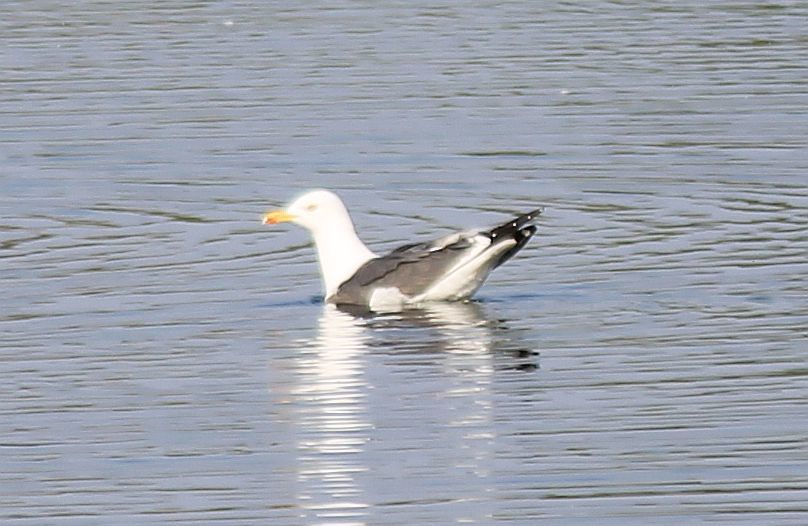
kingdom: Animalia
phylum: Chordata
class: Aves
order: Charadriiformes
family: Laridae
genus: Larus
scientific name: Larus fuscus
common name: Lesser black-backed gull
